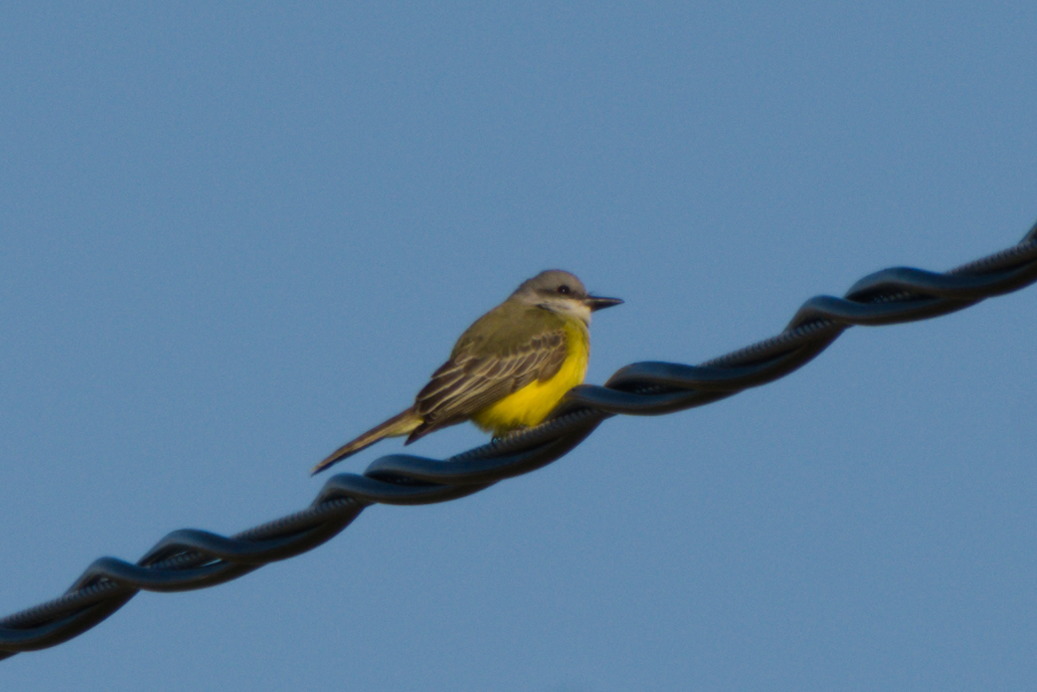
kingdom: Animalia
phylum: Chordata
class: Aves
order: Passeriformes
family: Tyrannidae
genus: Tyrannus
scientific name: Tyrannus melancholicus
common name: Tropical kingbird
